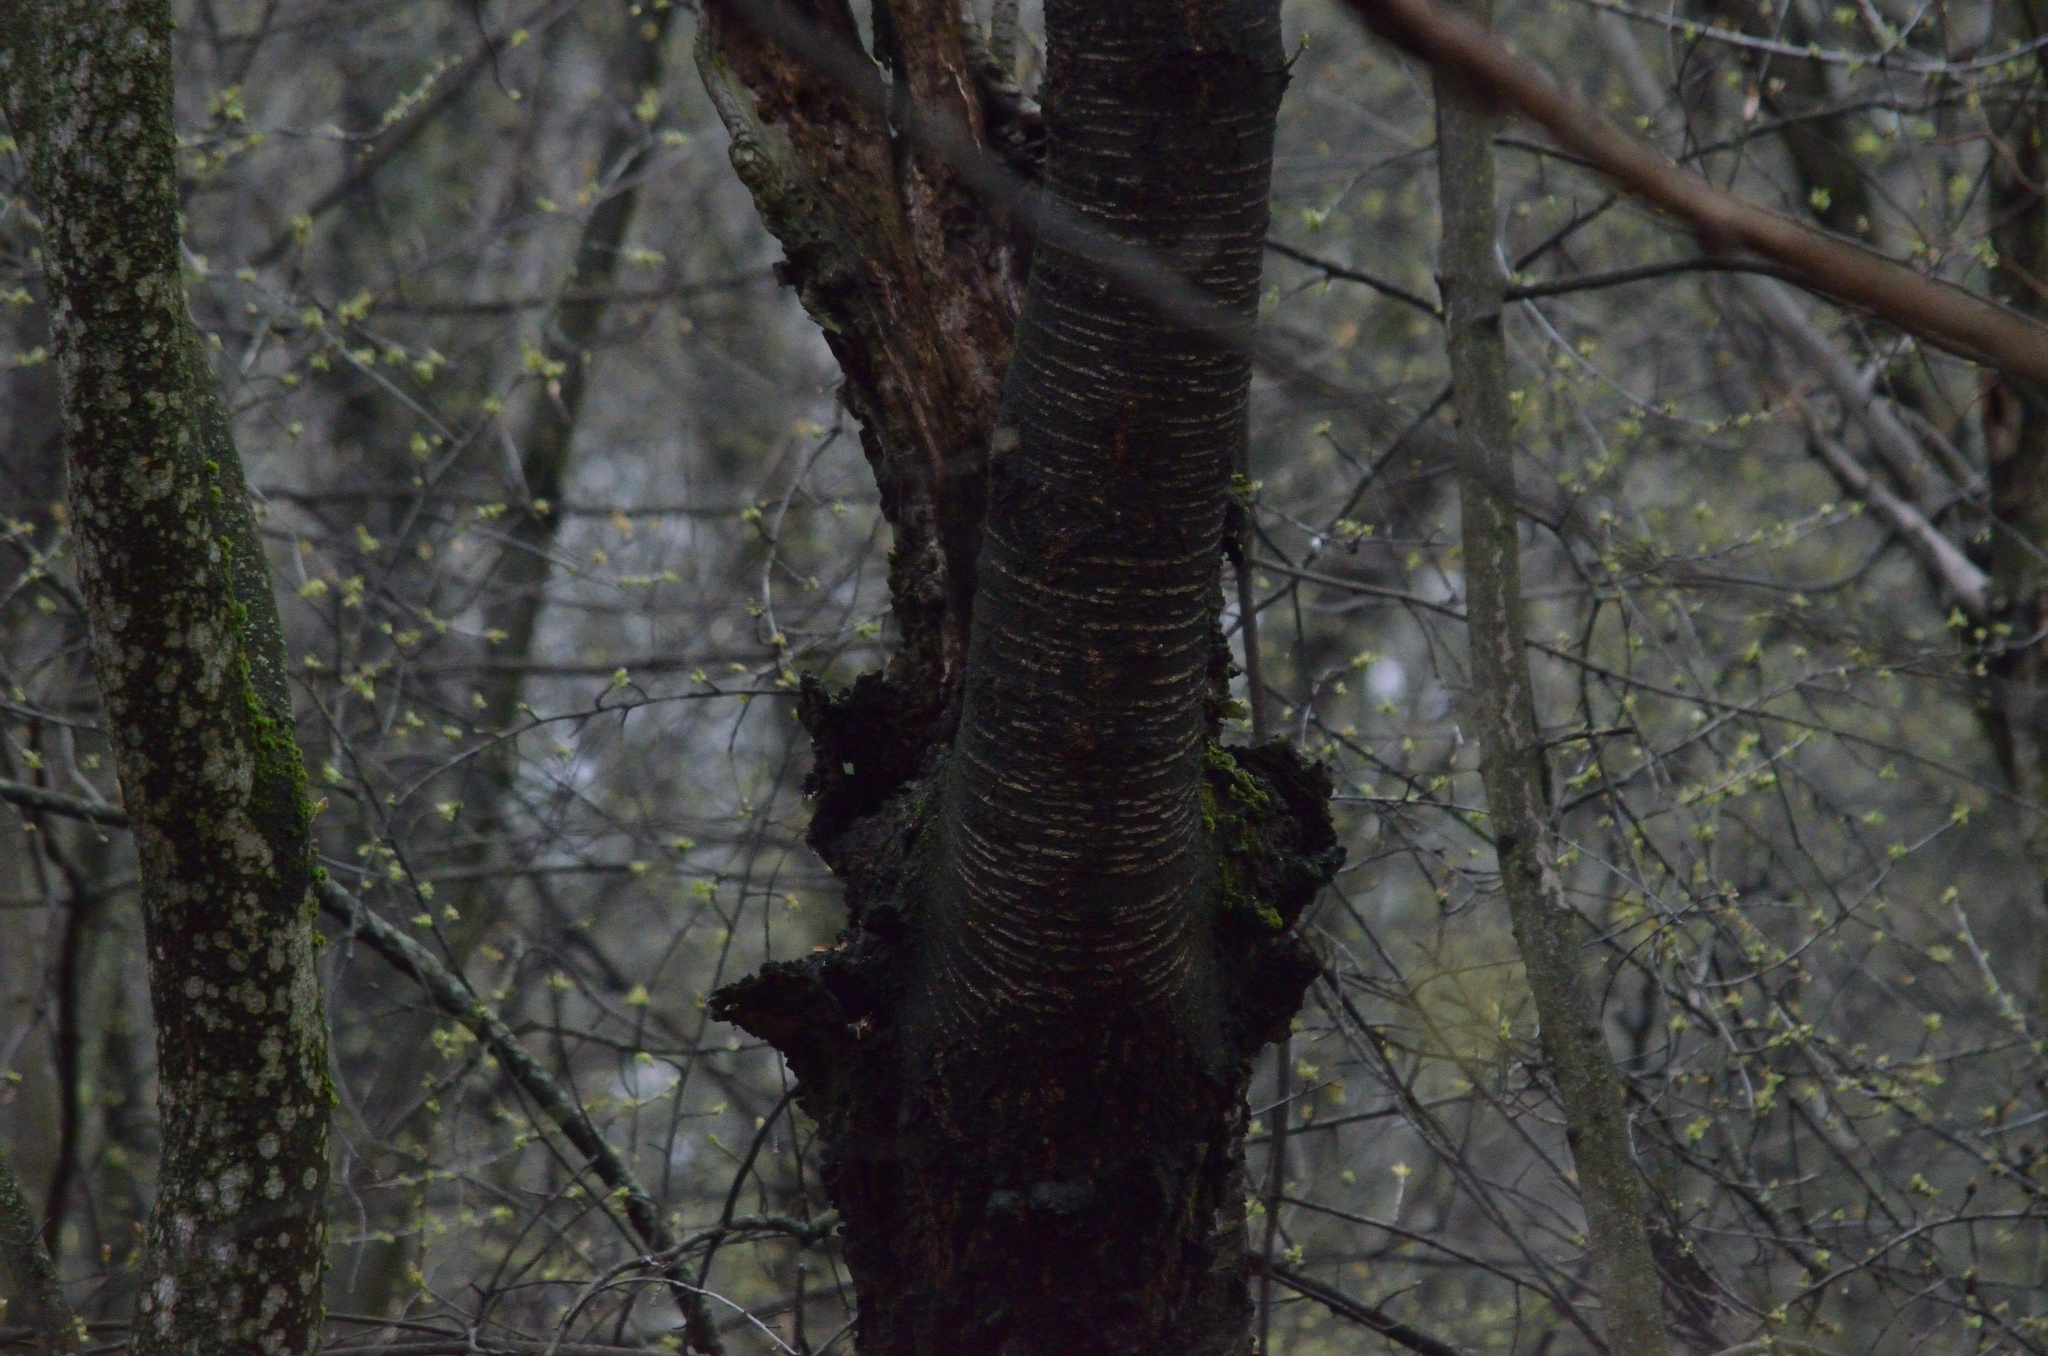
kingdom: Plantae
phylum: Tracheophyta
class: Magnoliopsida
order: Rosales
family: Rosaceae
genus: Prunus
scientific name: Prunus avium
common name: Sweet cherry
